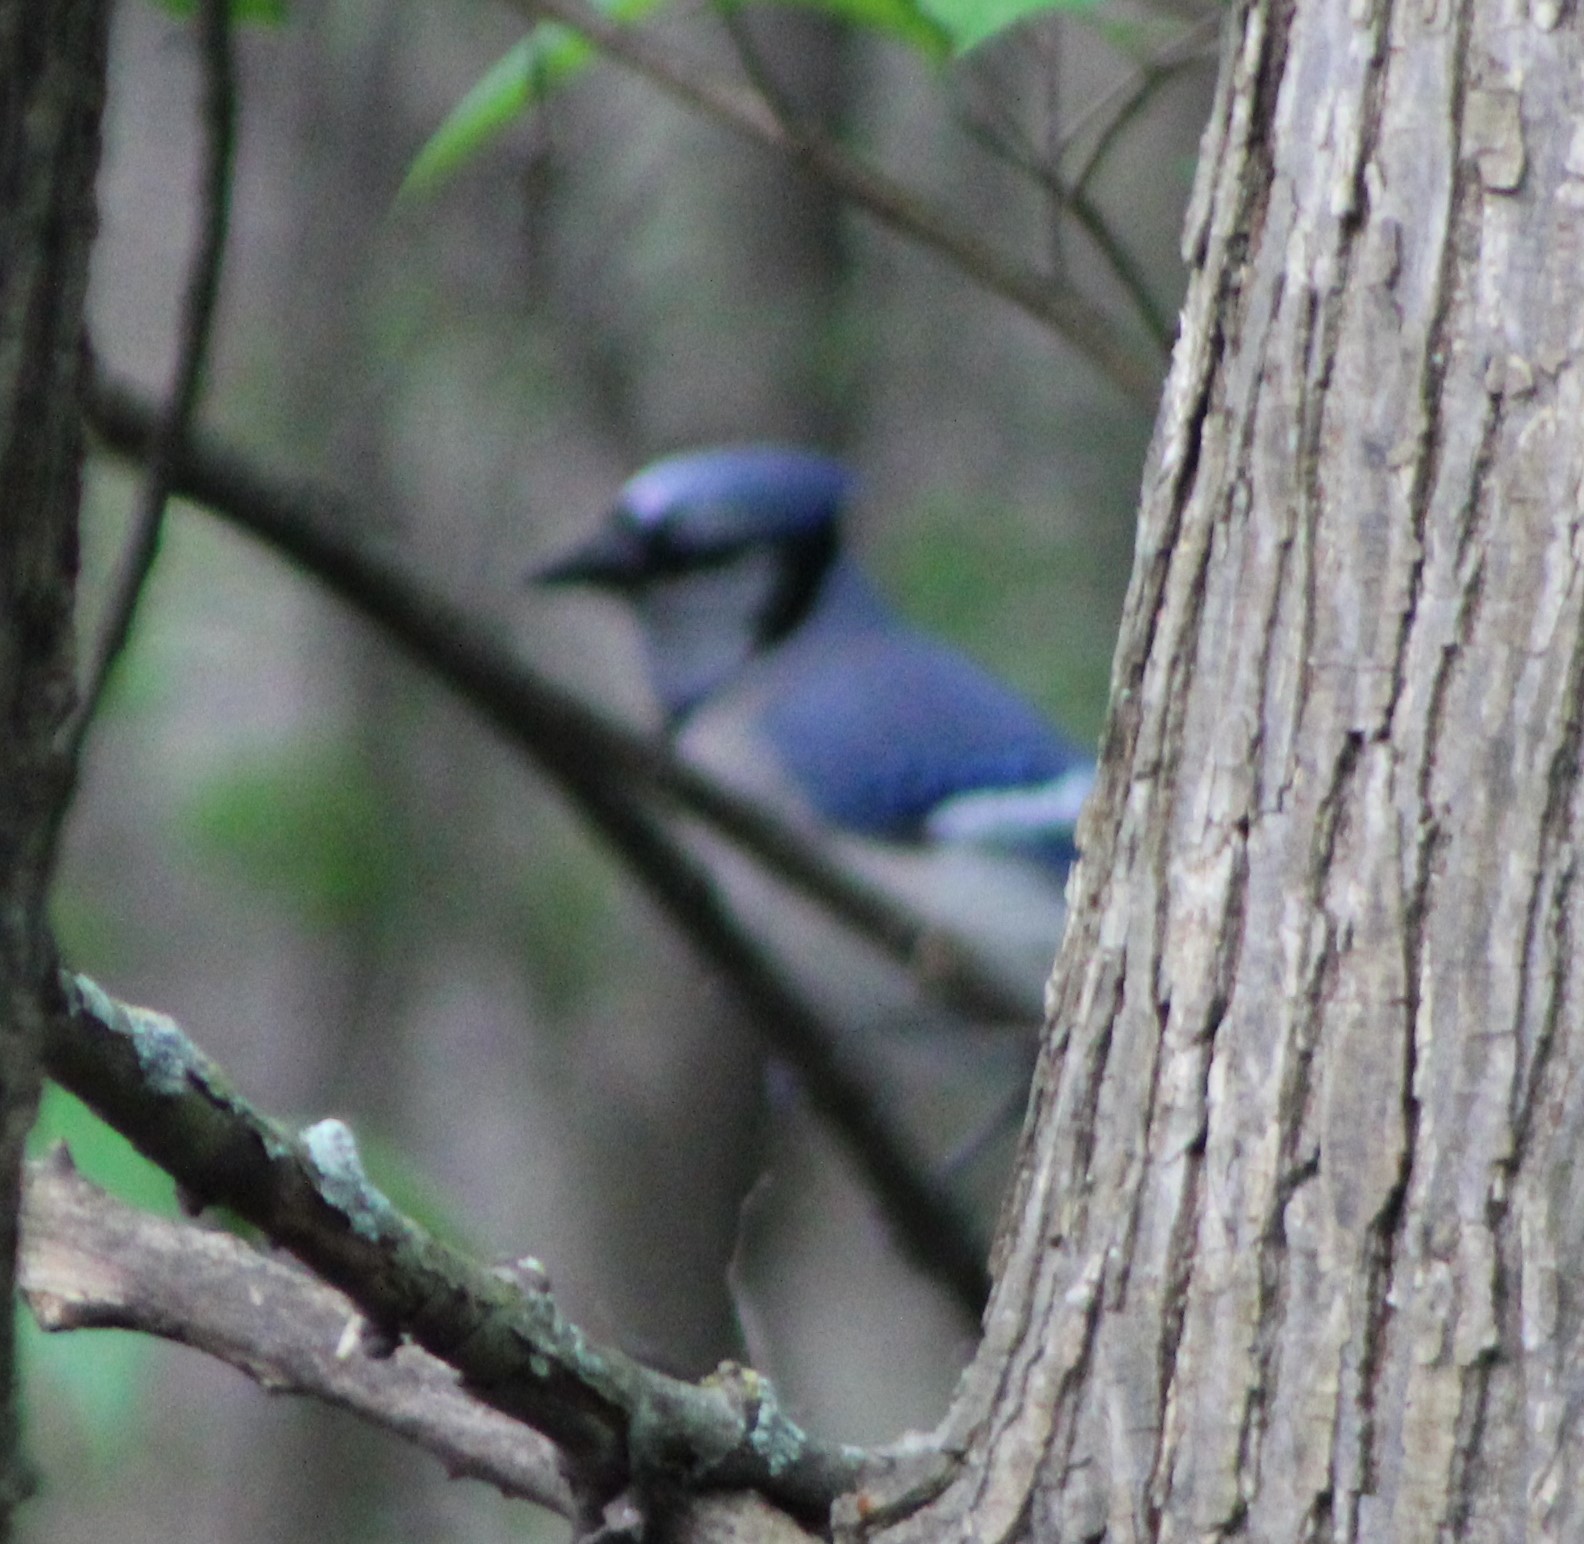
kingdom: Animalia
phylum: Chordata
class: Aves
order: Passeriformes
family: Corvidae
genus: Cyanocitta
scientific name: Cyanocitta cristata
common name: Blue jay
